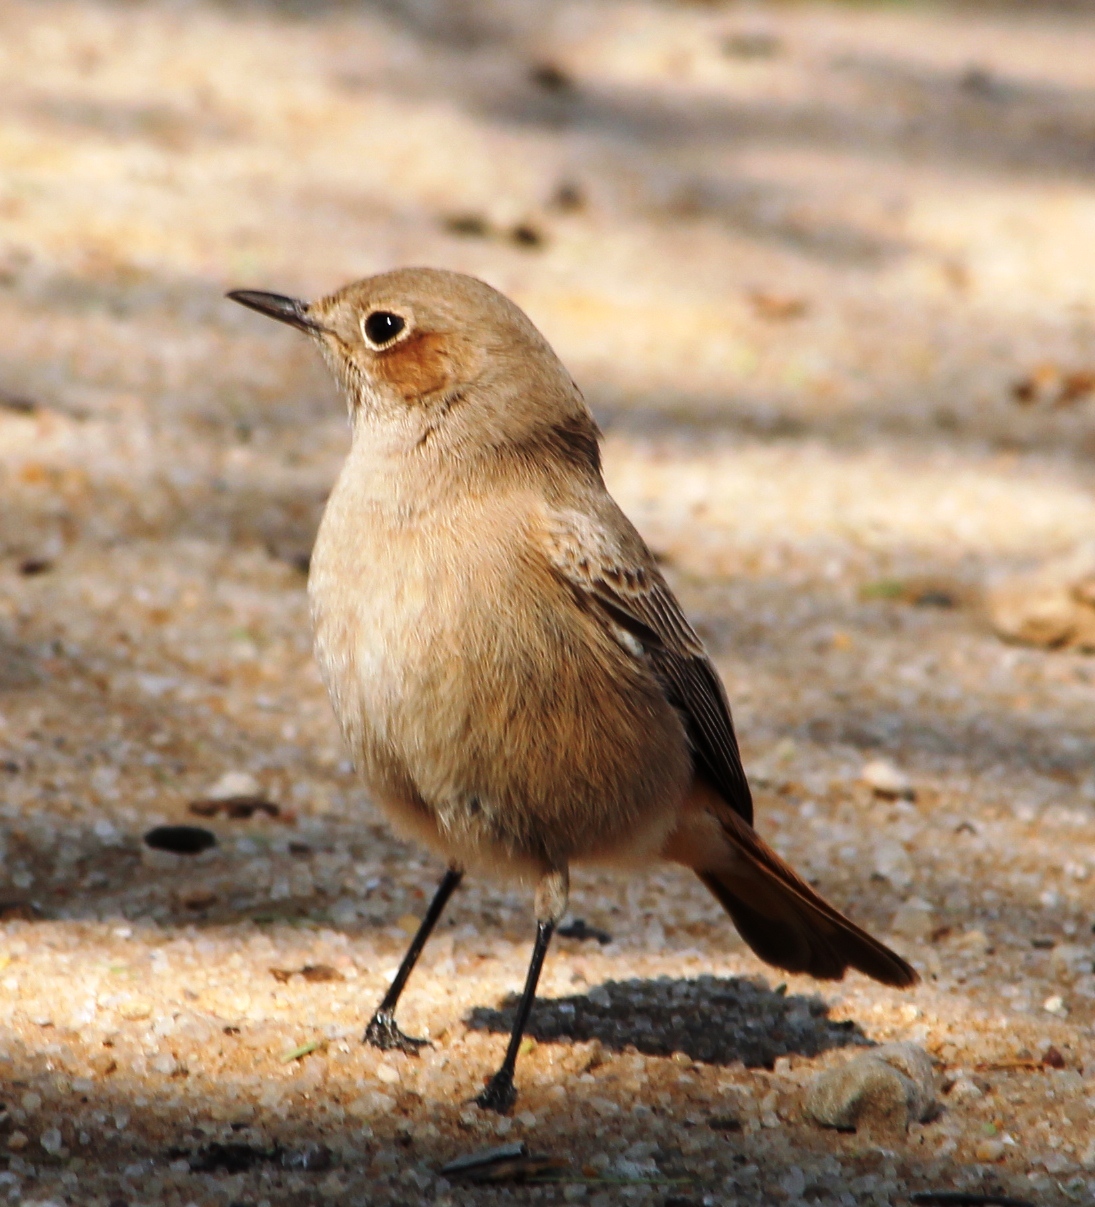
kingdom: Animalia
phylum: Chordata
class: Aves
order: Passeriformes
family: Muscicapidae
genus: Oenanthe
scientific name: Oenanthe familiaris
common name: Familiar chat
